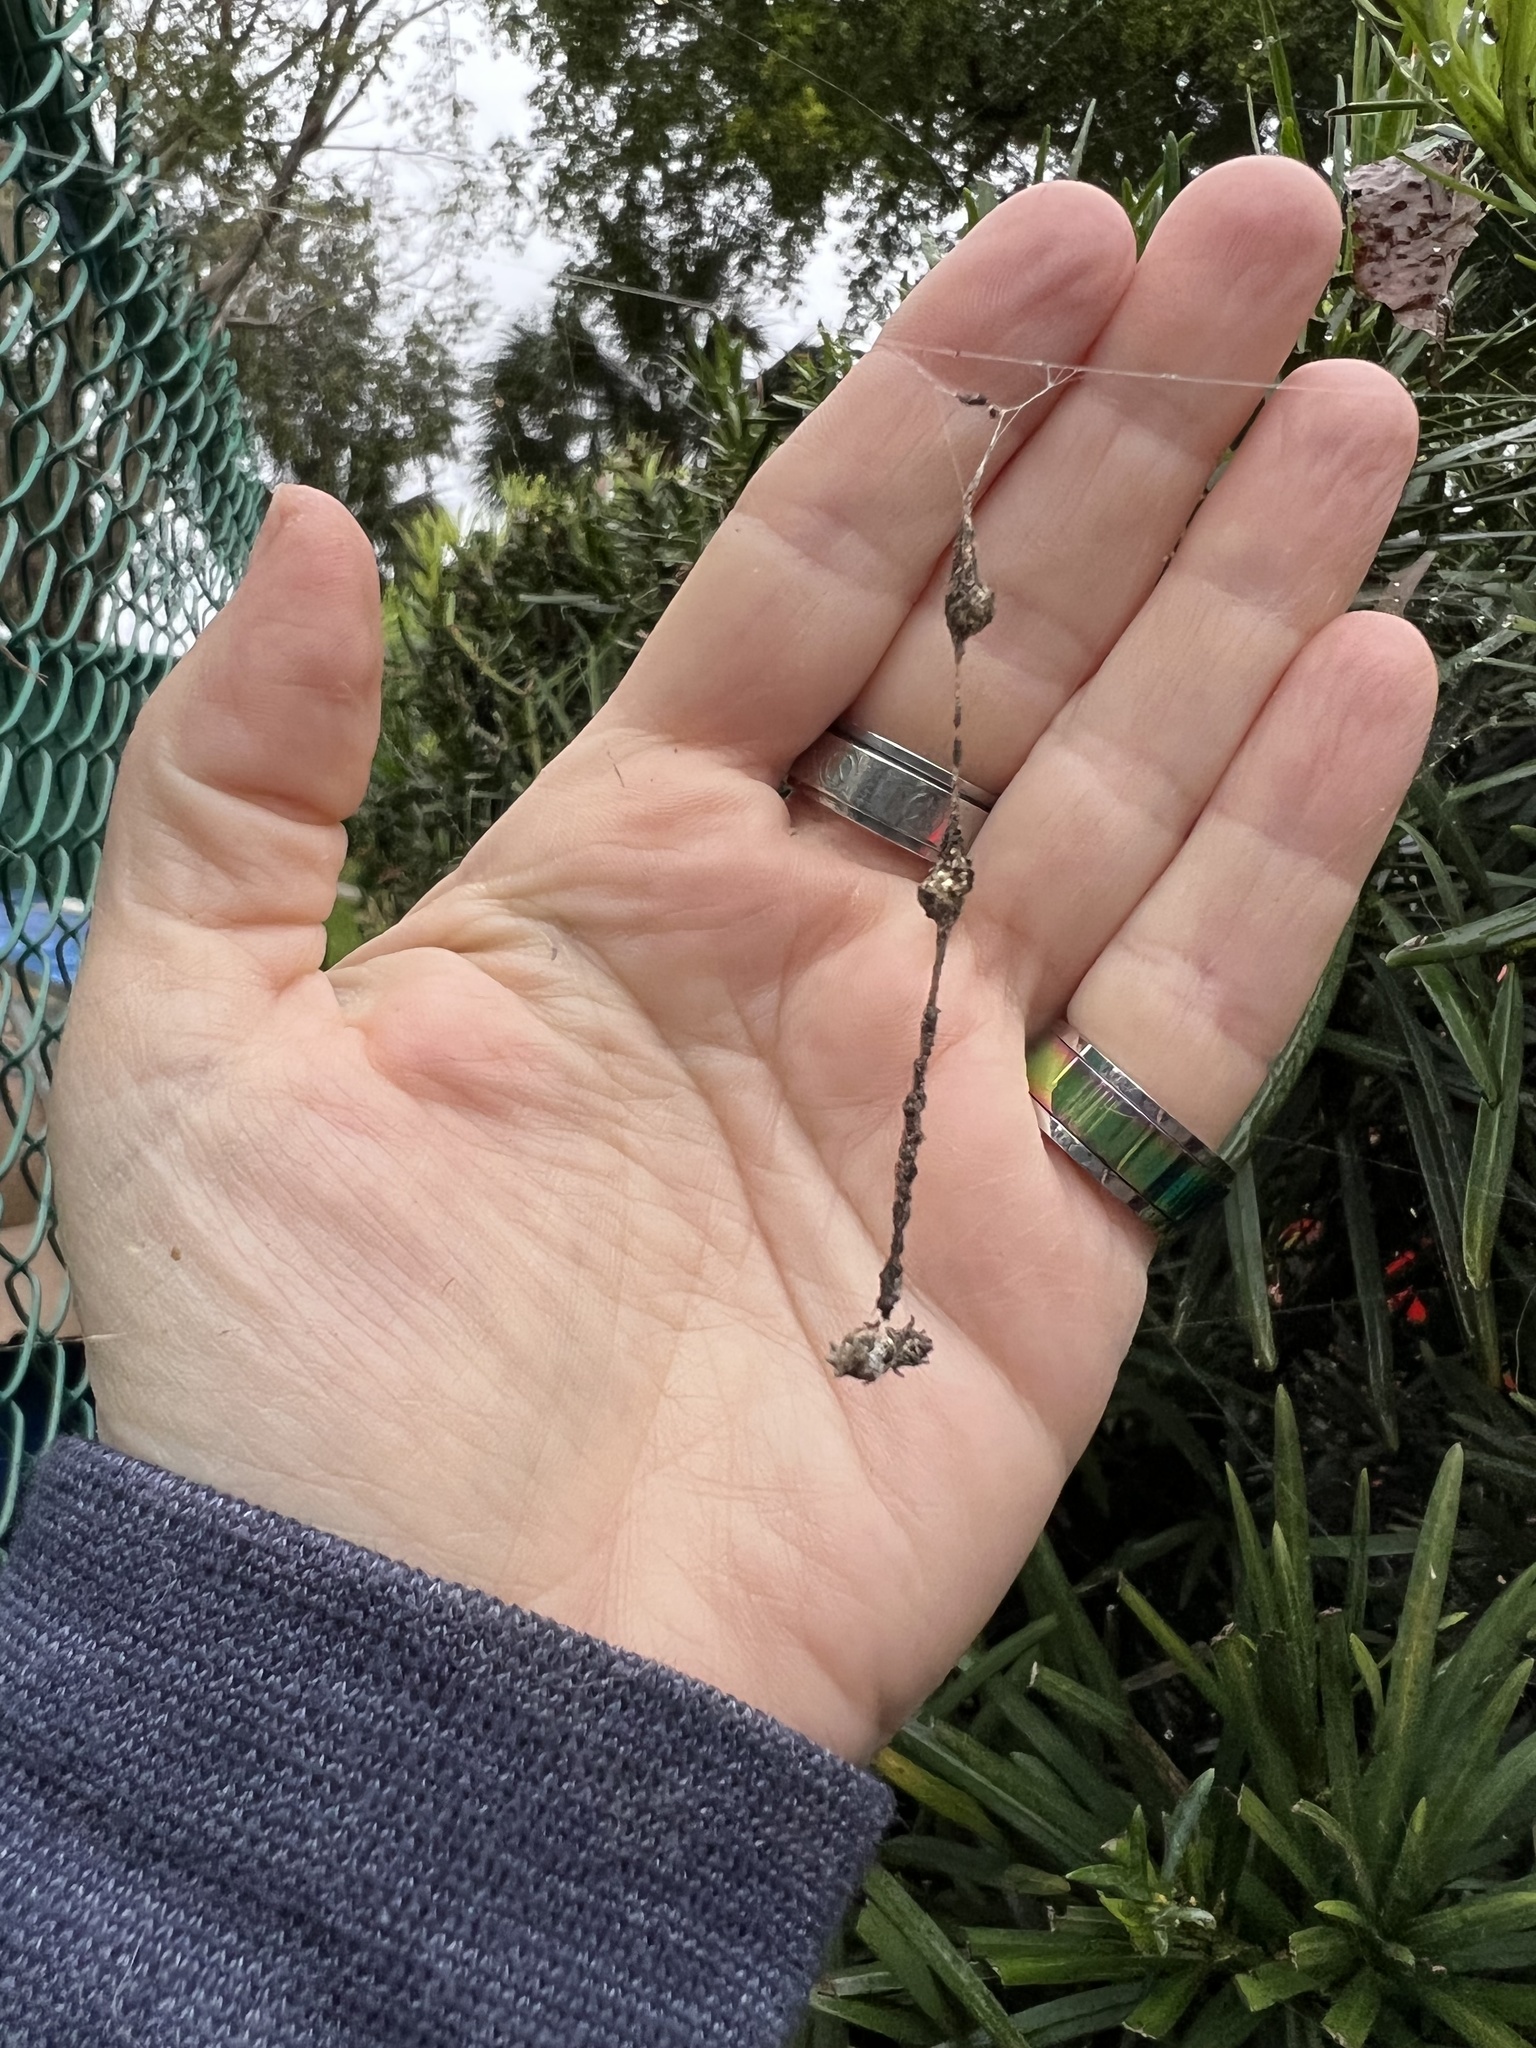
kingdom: Animalia
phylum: Arthropoda
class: Arachnida
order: Araneae
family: Araneidae
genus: Cyclosa
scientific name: Cyclosa walckenaeri
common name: Orb weavers
